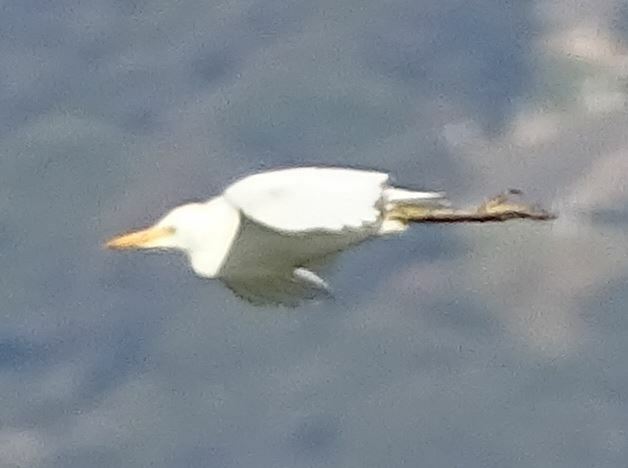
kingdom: Animalia
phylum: Chordata
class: Aves
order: Pelecaniformes
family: Ardeidae
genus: Bubulcus
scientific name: Bubulcus ibis
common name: Cattle egret
